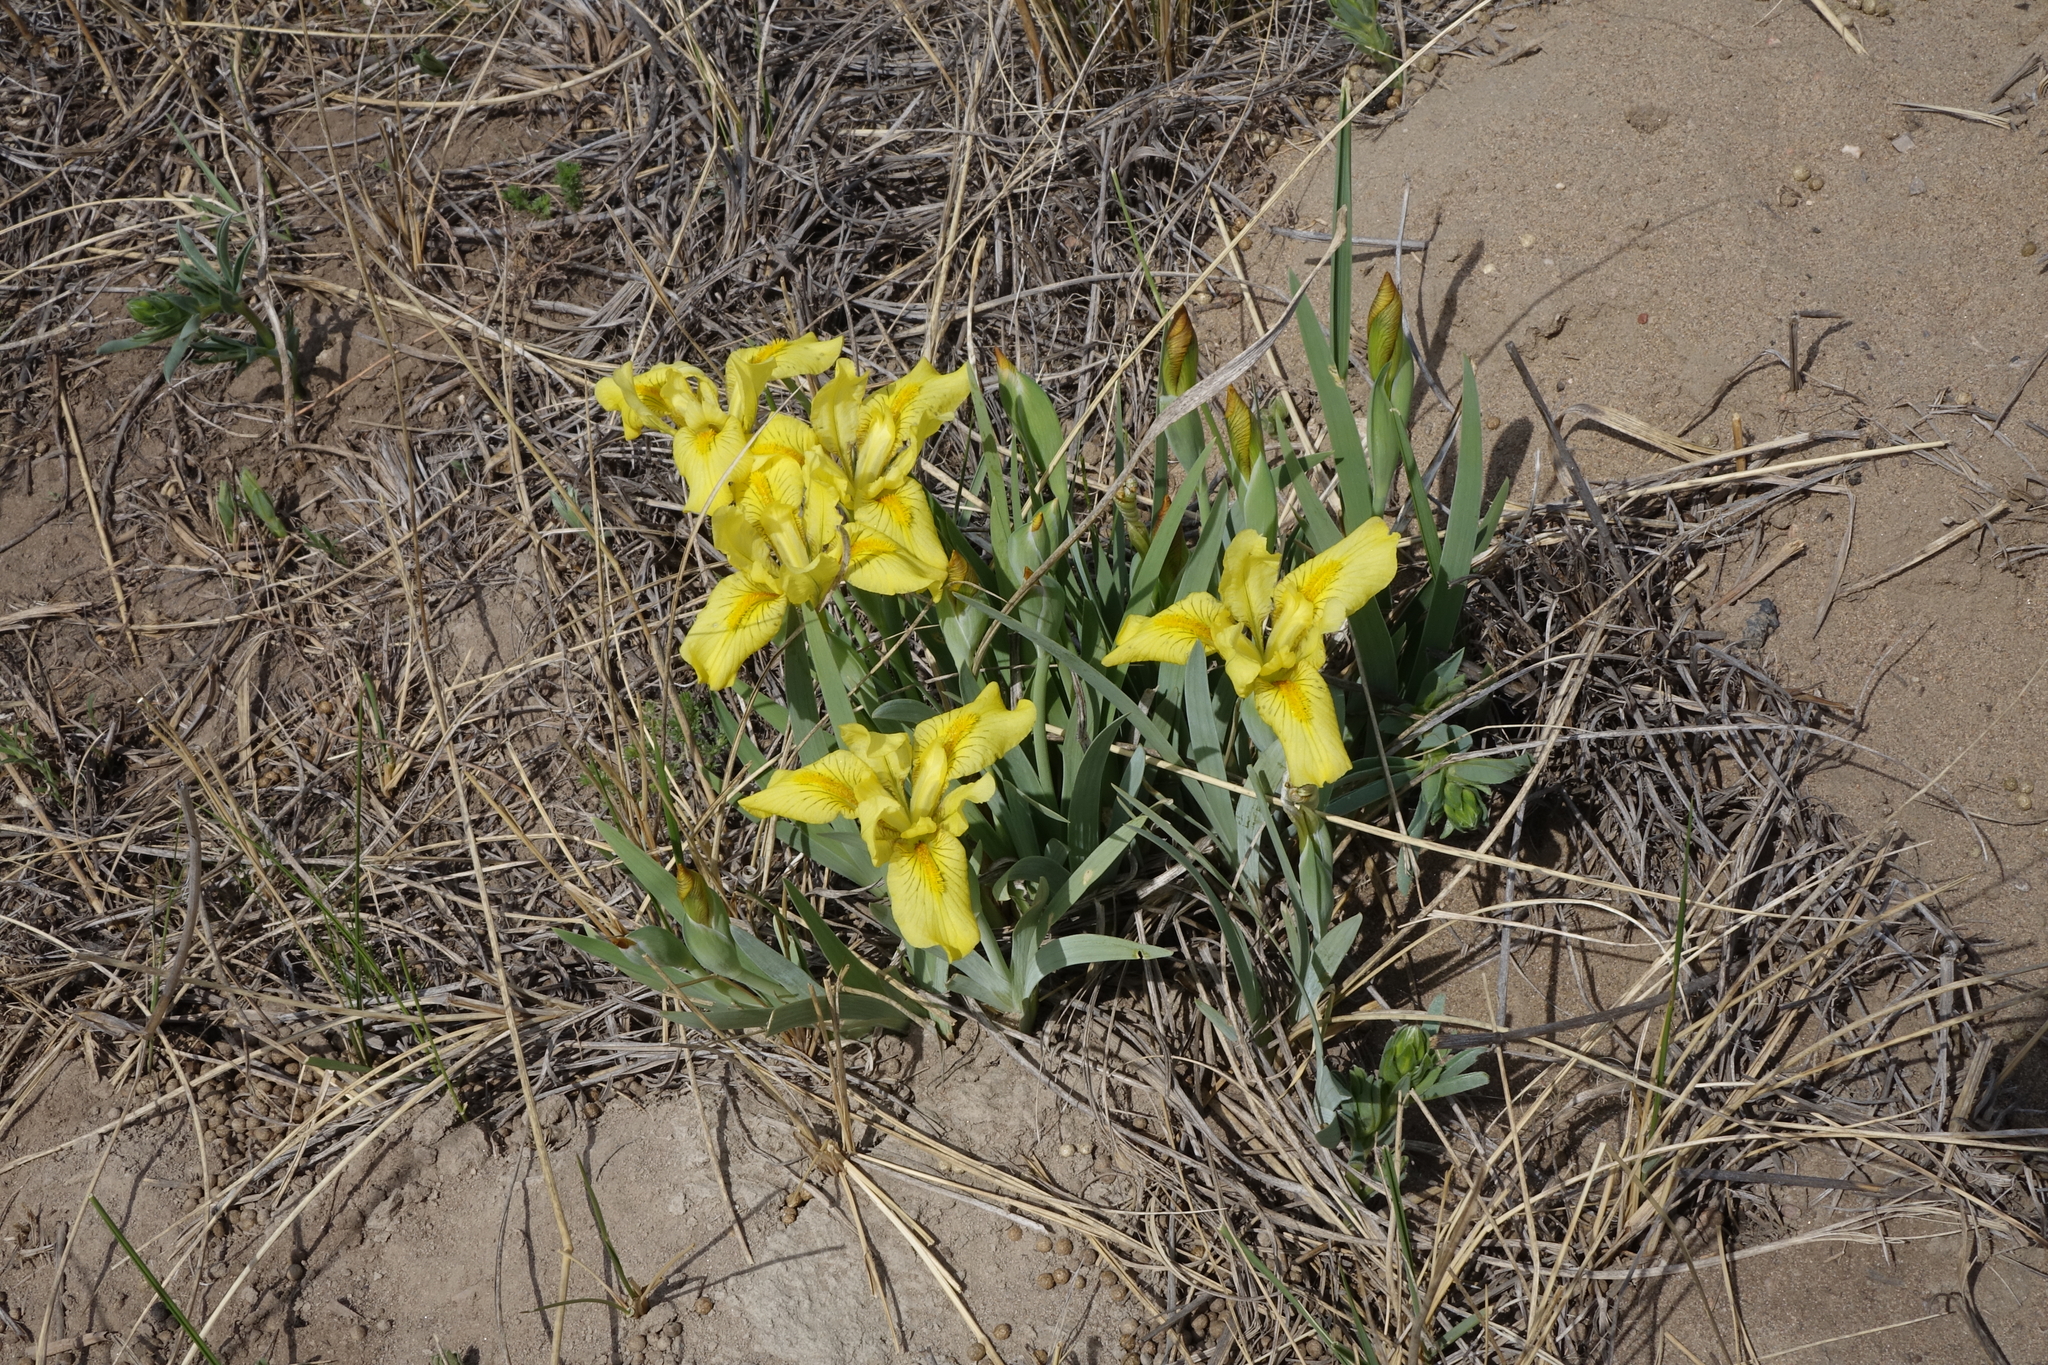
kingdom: Plantae
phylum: Tracheophyta
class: Liliopsida
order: Asparagales
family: Iridaceae
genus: Iris
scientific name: Iris humilis
